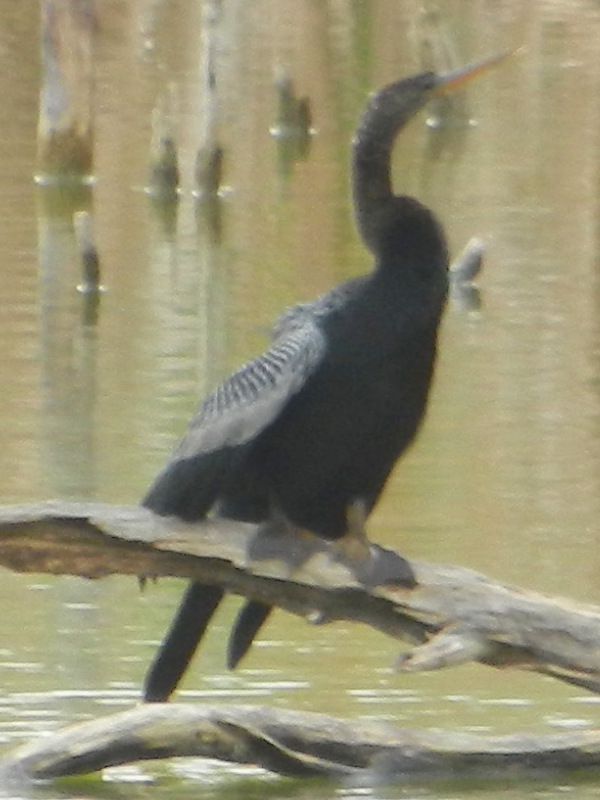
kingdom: Animalia
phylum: Chordata
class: Aves
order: Suliformes
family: Anhingidae
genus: Anhinga
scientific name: Anhinga anhinga
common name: Anhinga
